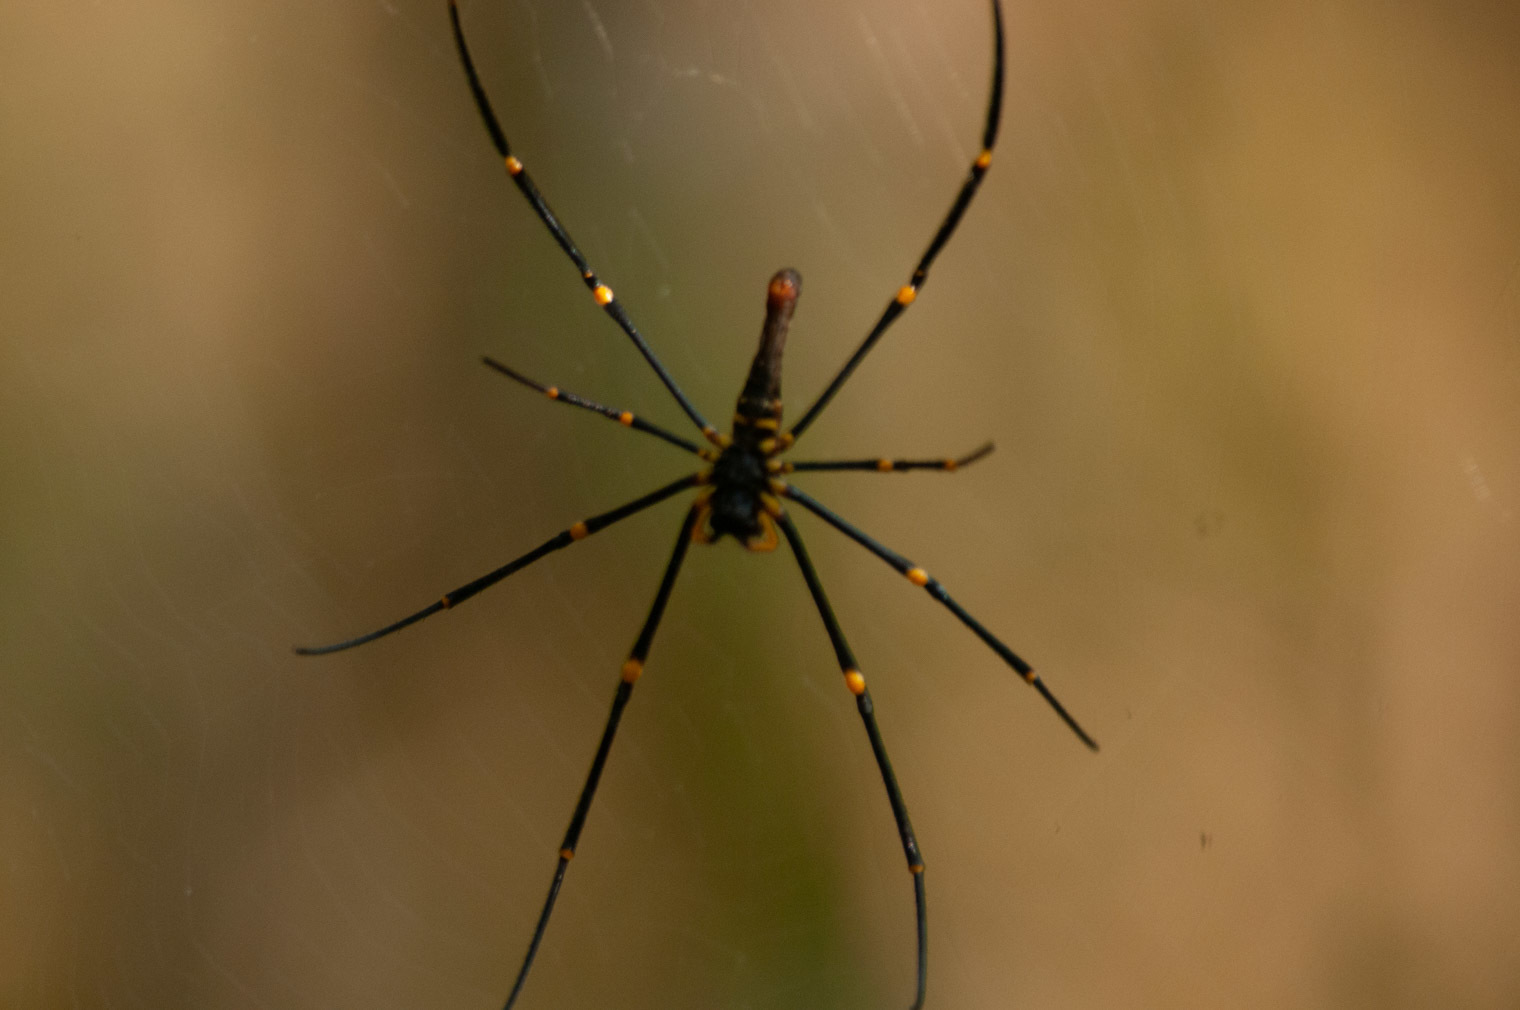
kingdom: Animalia
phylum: Arthropoda
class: Arachnida
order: Araneae
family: Araneidae
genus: Nephila
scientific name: Nephila pilipes
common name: Giant golden orb weaver
